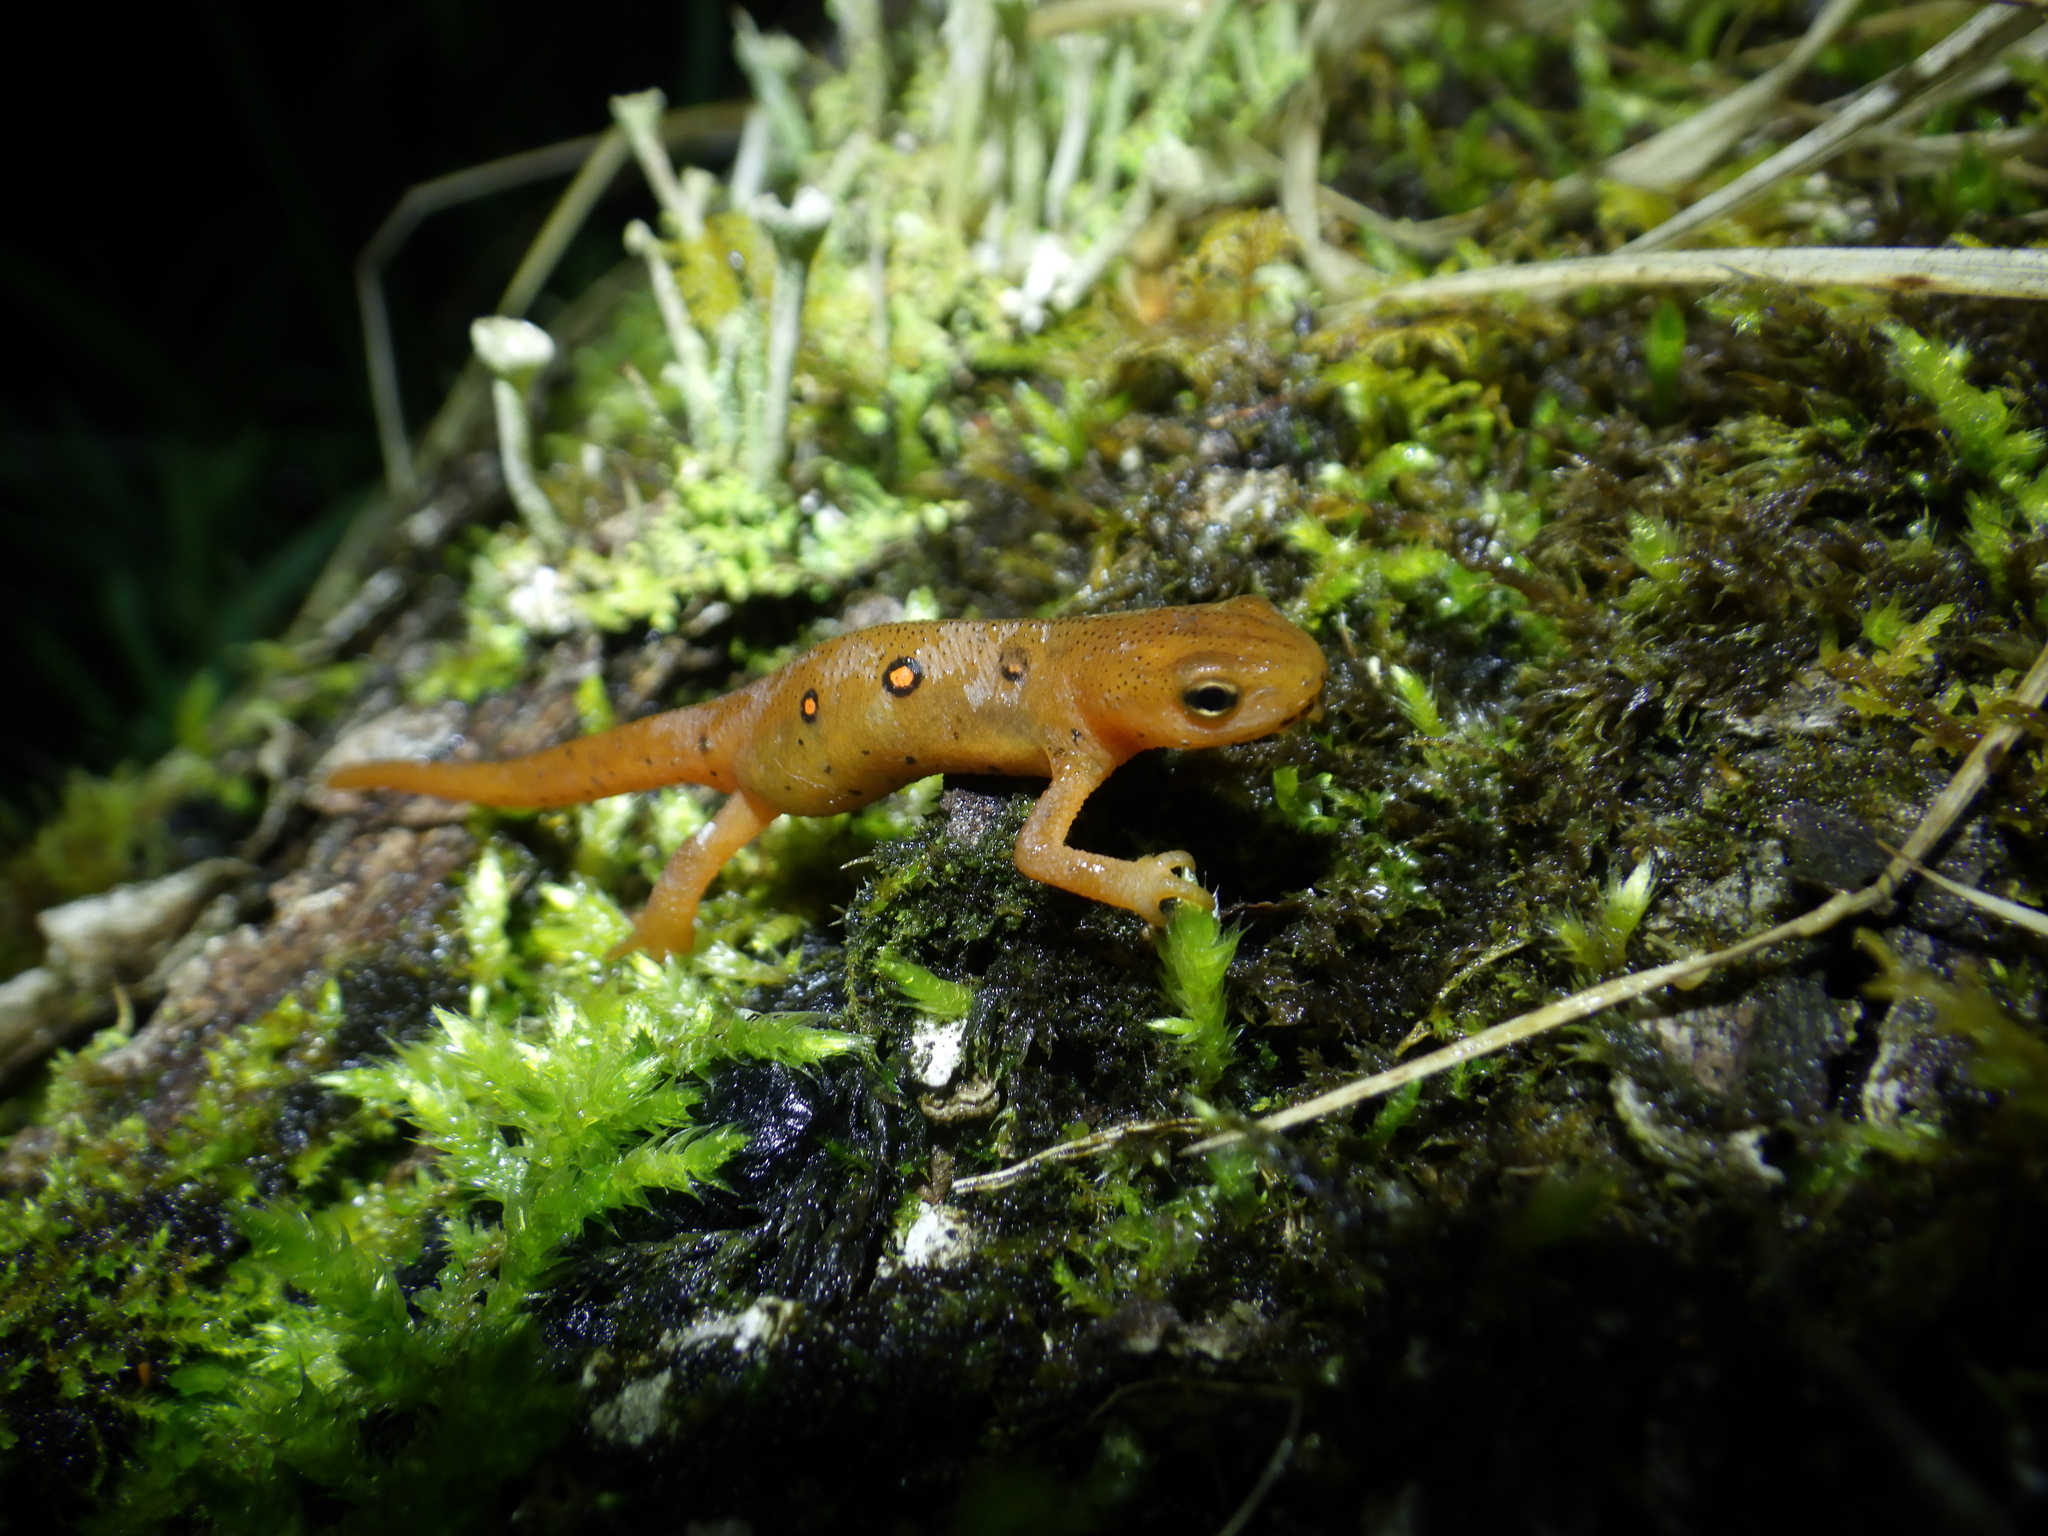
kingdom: Animalia
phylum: Chordata
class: Amphibia
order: Caudata
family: Salamandridae
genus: Notophthalmus
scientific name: Notophthalmus viridescens
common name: Eastern newt
